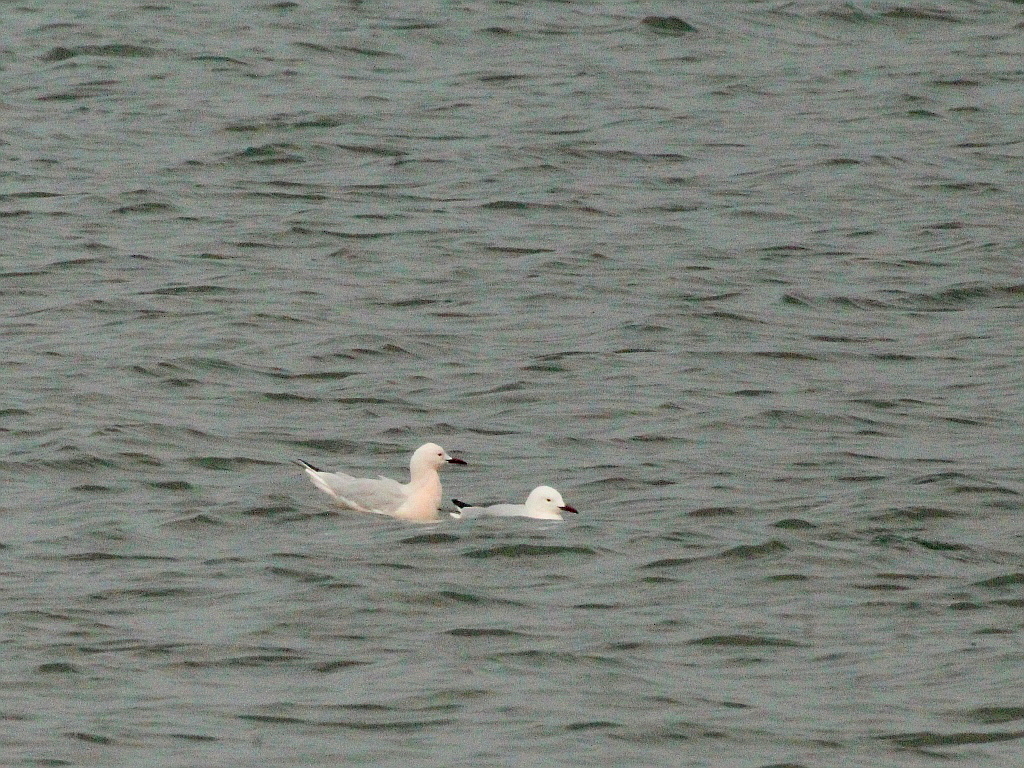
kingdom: Animalia
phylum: Chordata
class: Aves
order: Charadriiformes
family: Laridae
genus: Chroicocephalus
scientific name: Chroicocephalus genei
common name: Slender-billed gull
